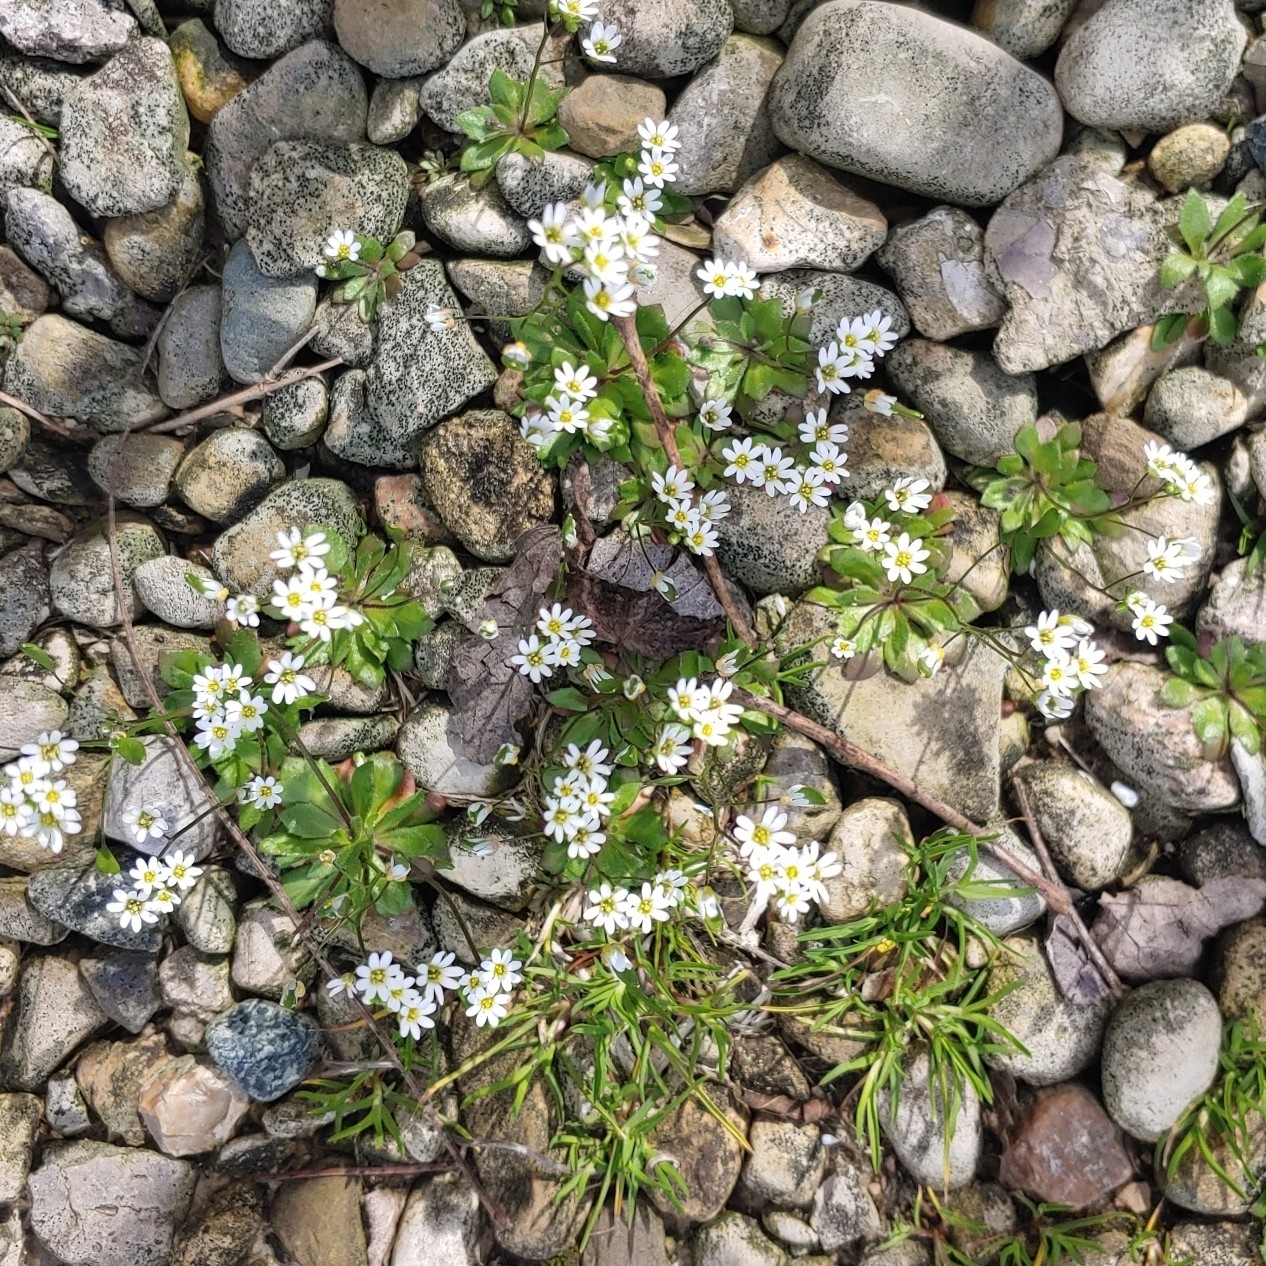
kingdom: Plantae
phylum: Tracheophyta
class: Magnoliopsida
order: Brassicales
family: Brassicaceae
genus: Draba
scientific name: Draba verna
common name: Spring draba
